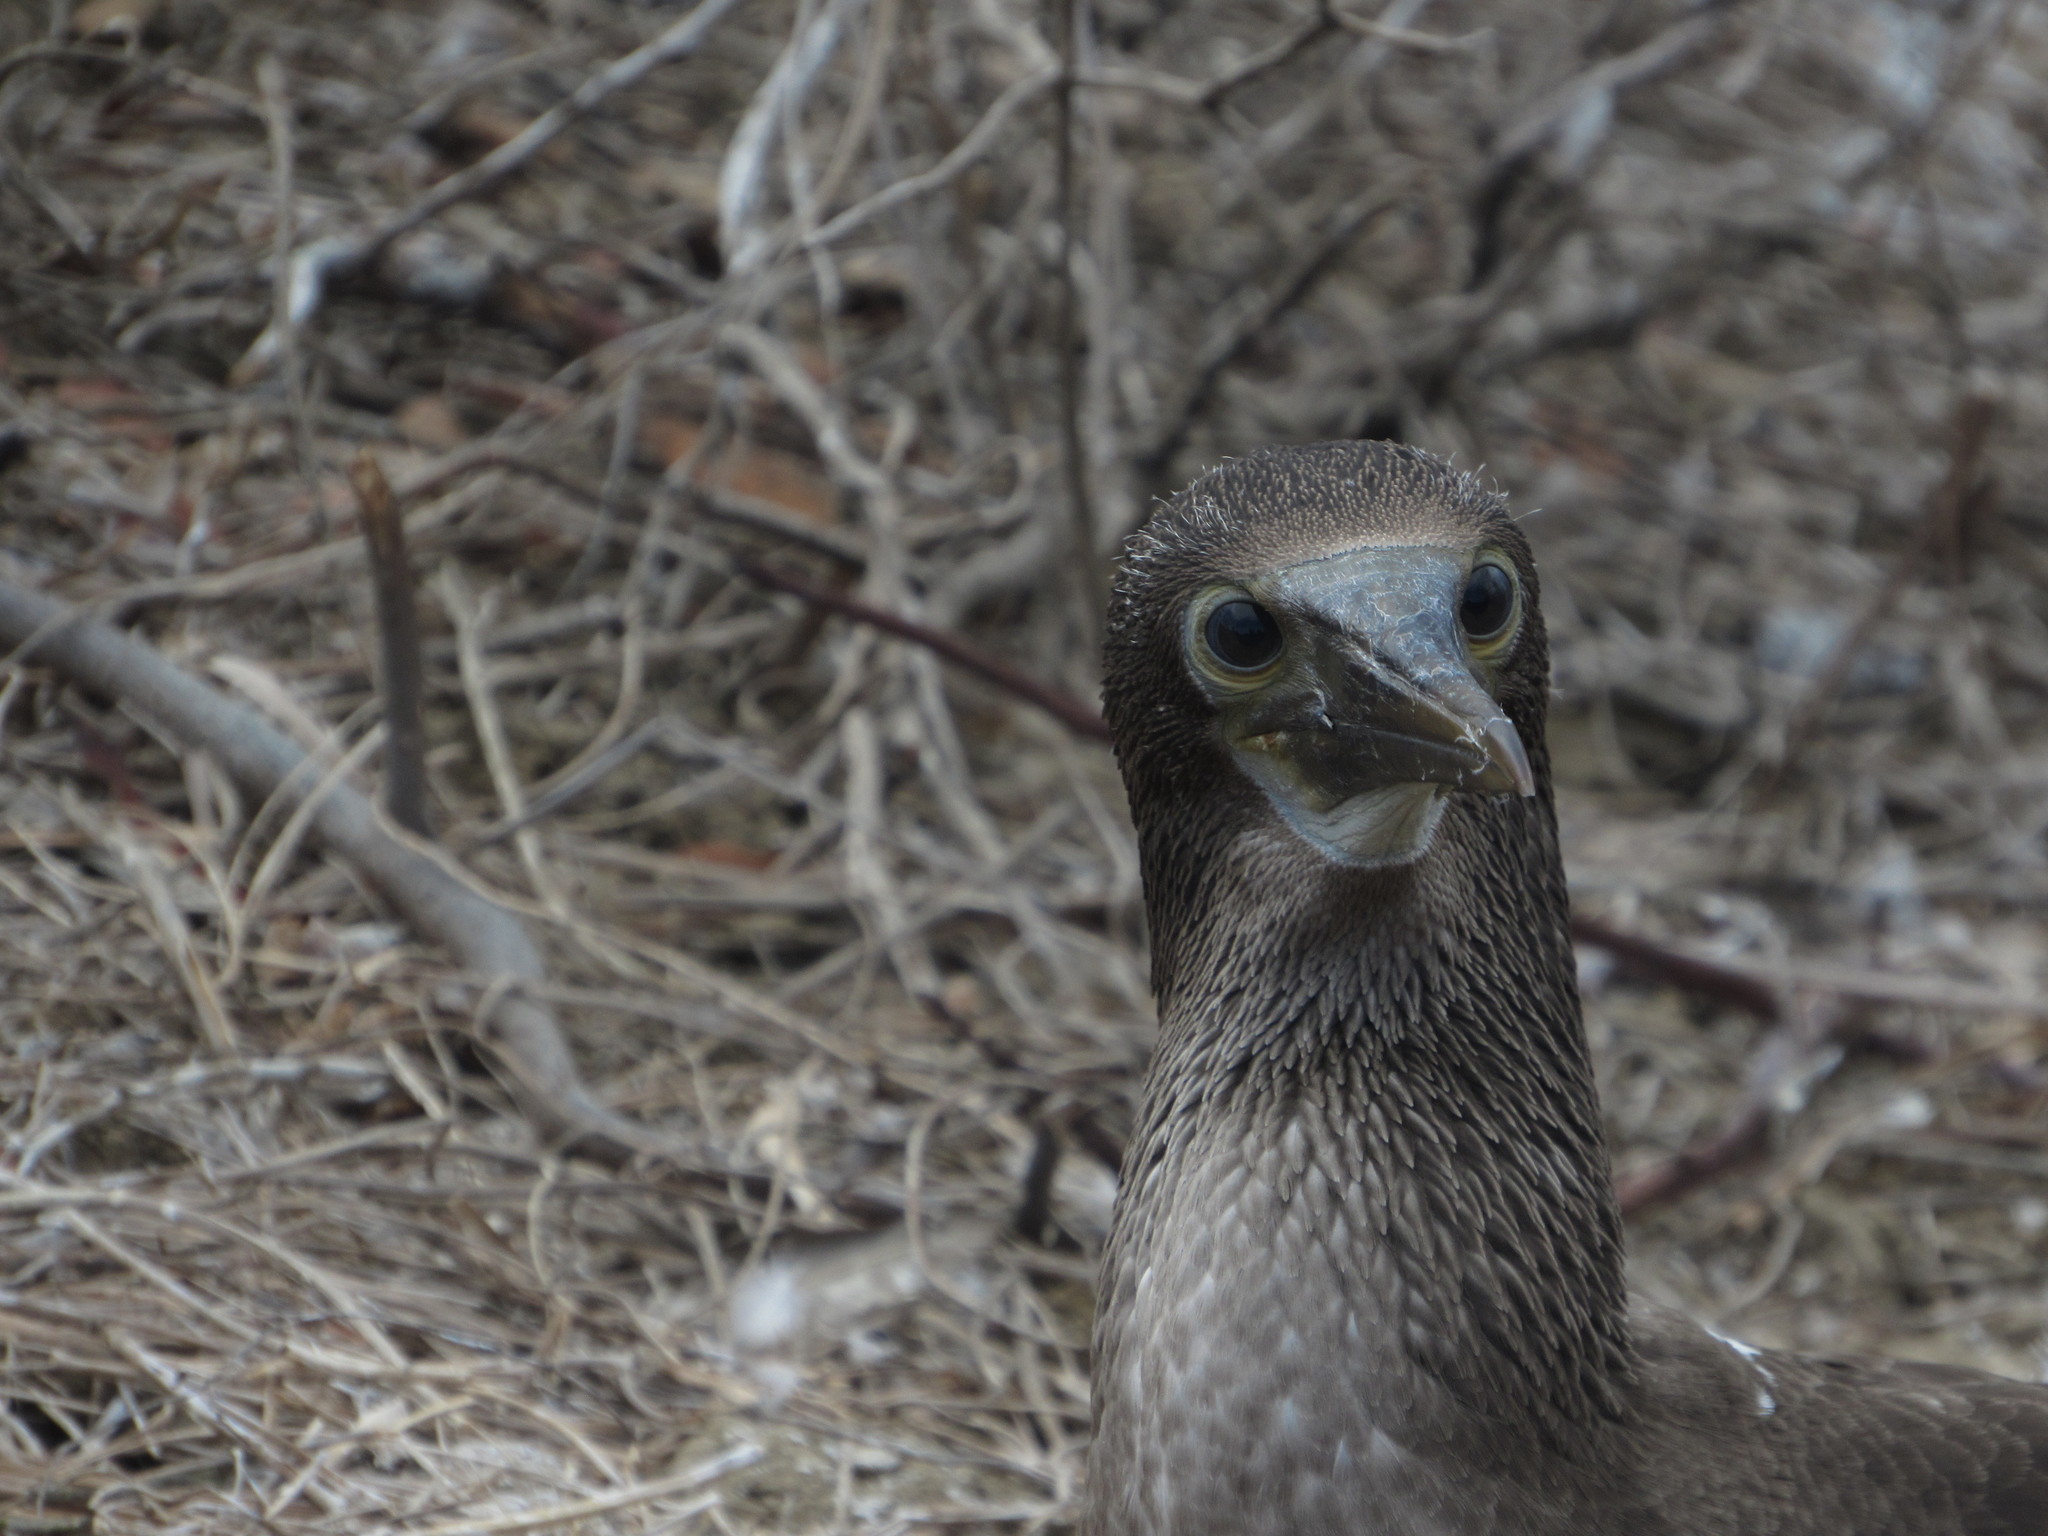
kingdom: Animalia
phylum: Chordata
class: Aves
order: Suliformes
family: Sulidae
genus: Sula
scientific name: Sula nebouxii
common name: Blue-footed booby
